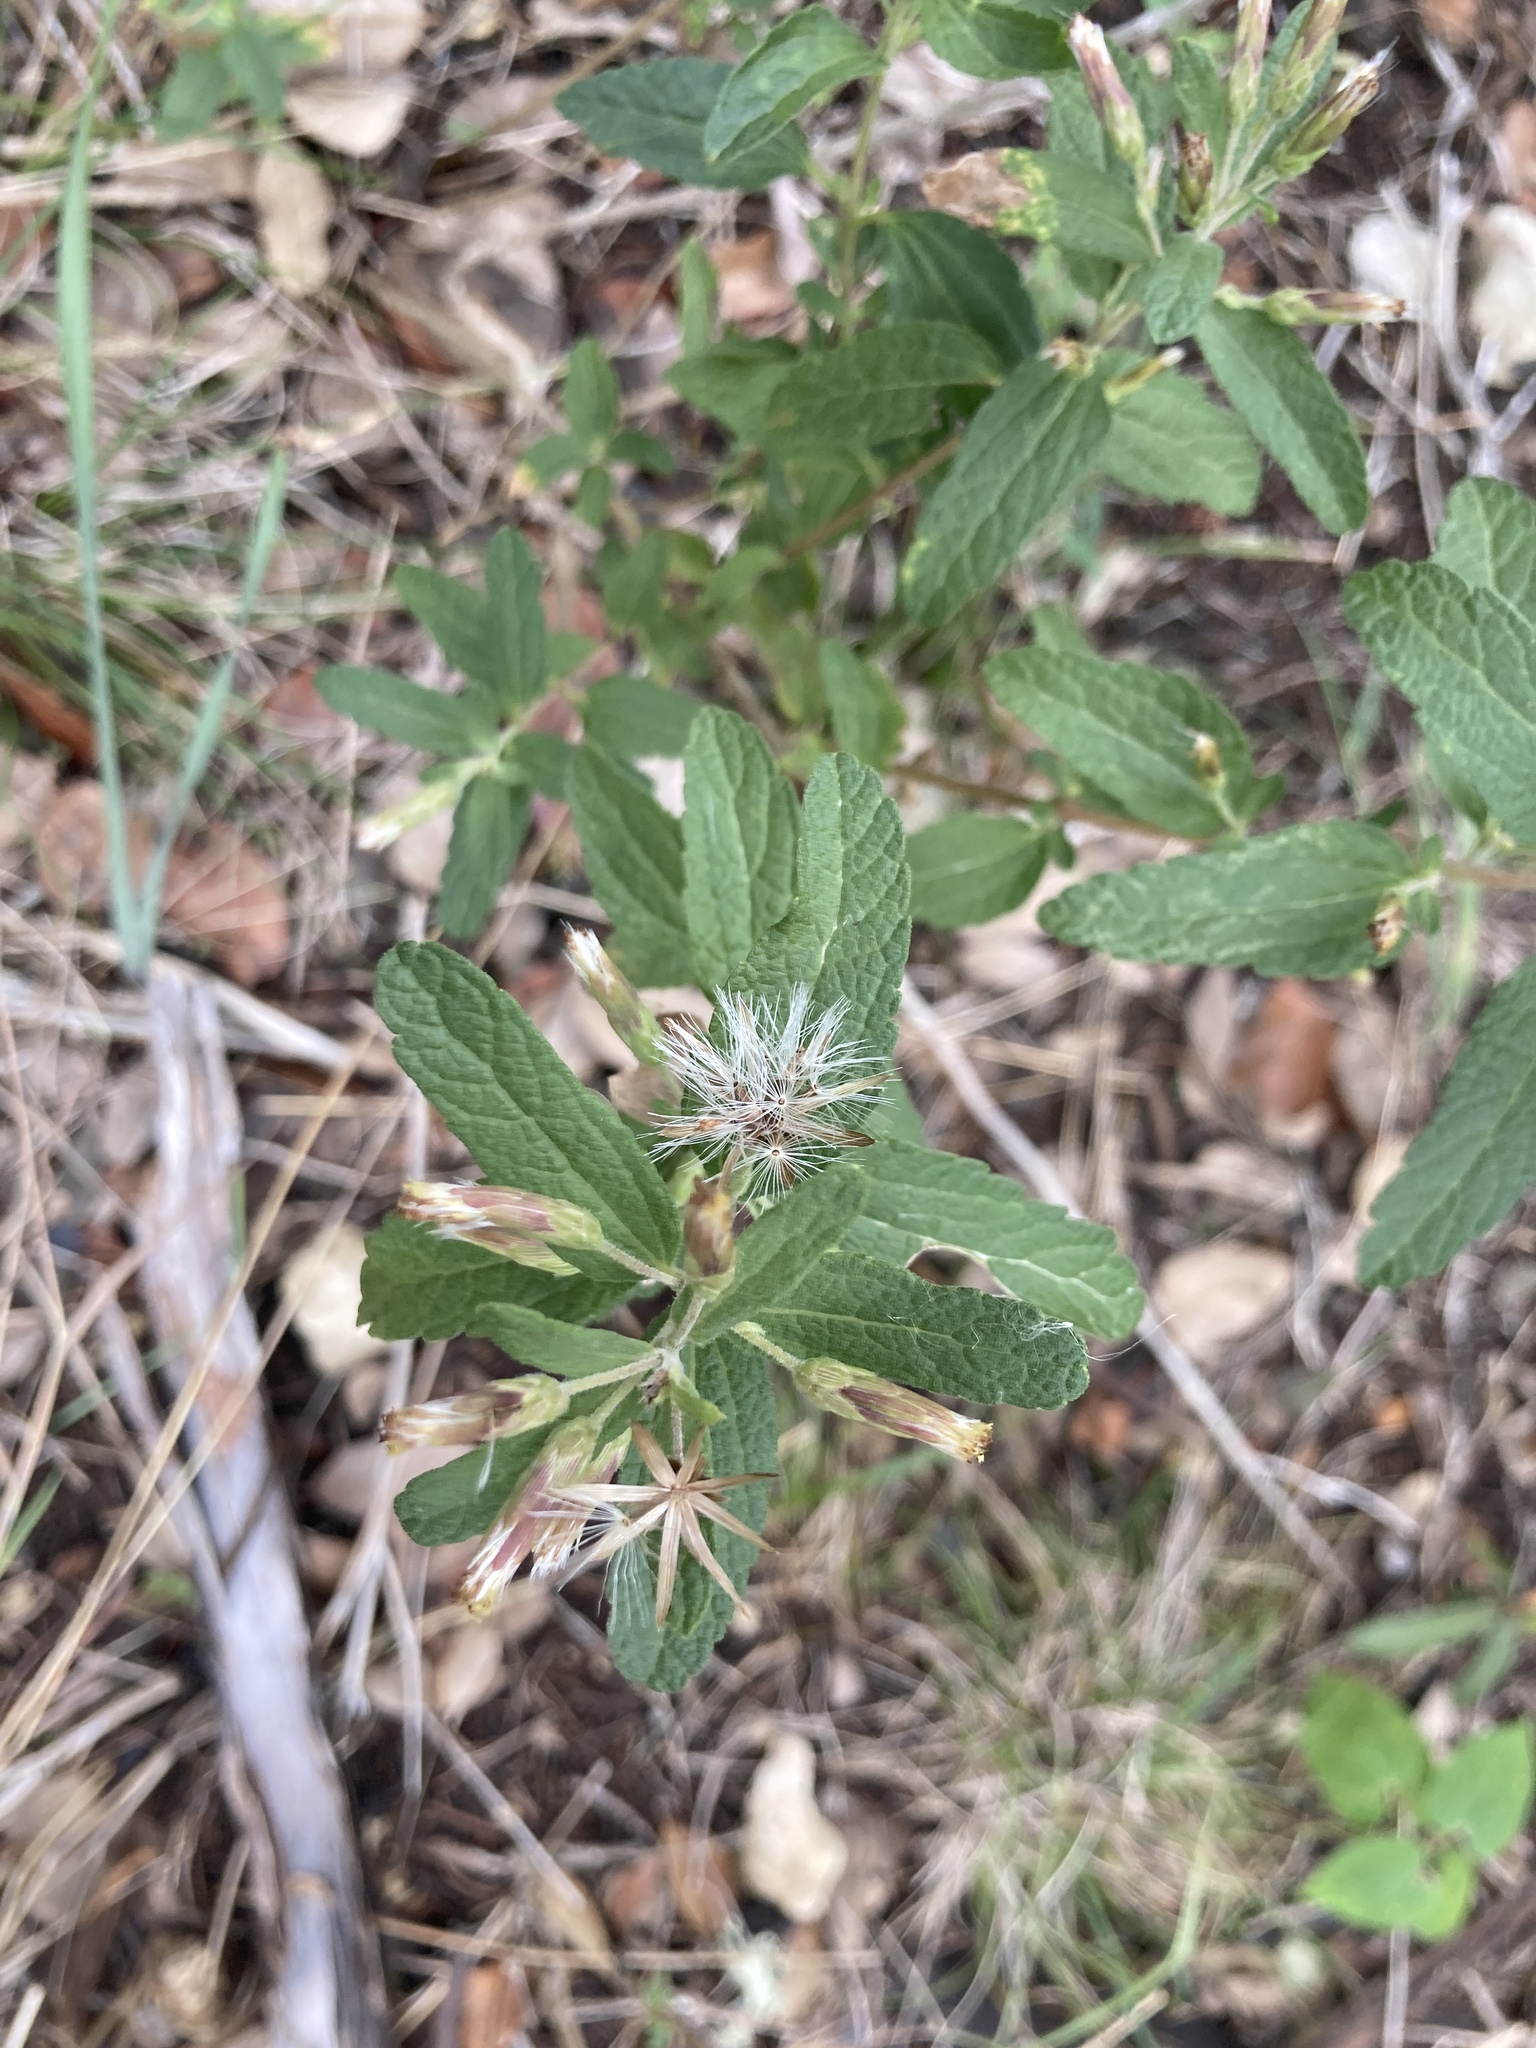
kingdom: Plantae
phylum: Tracheophyta
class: Magnoliopsida
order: Asterales
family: Asteraceae
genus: Brickellia
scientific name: Brickellia cylindracea
